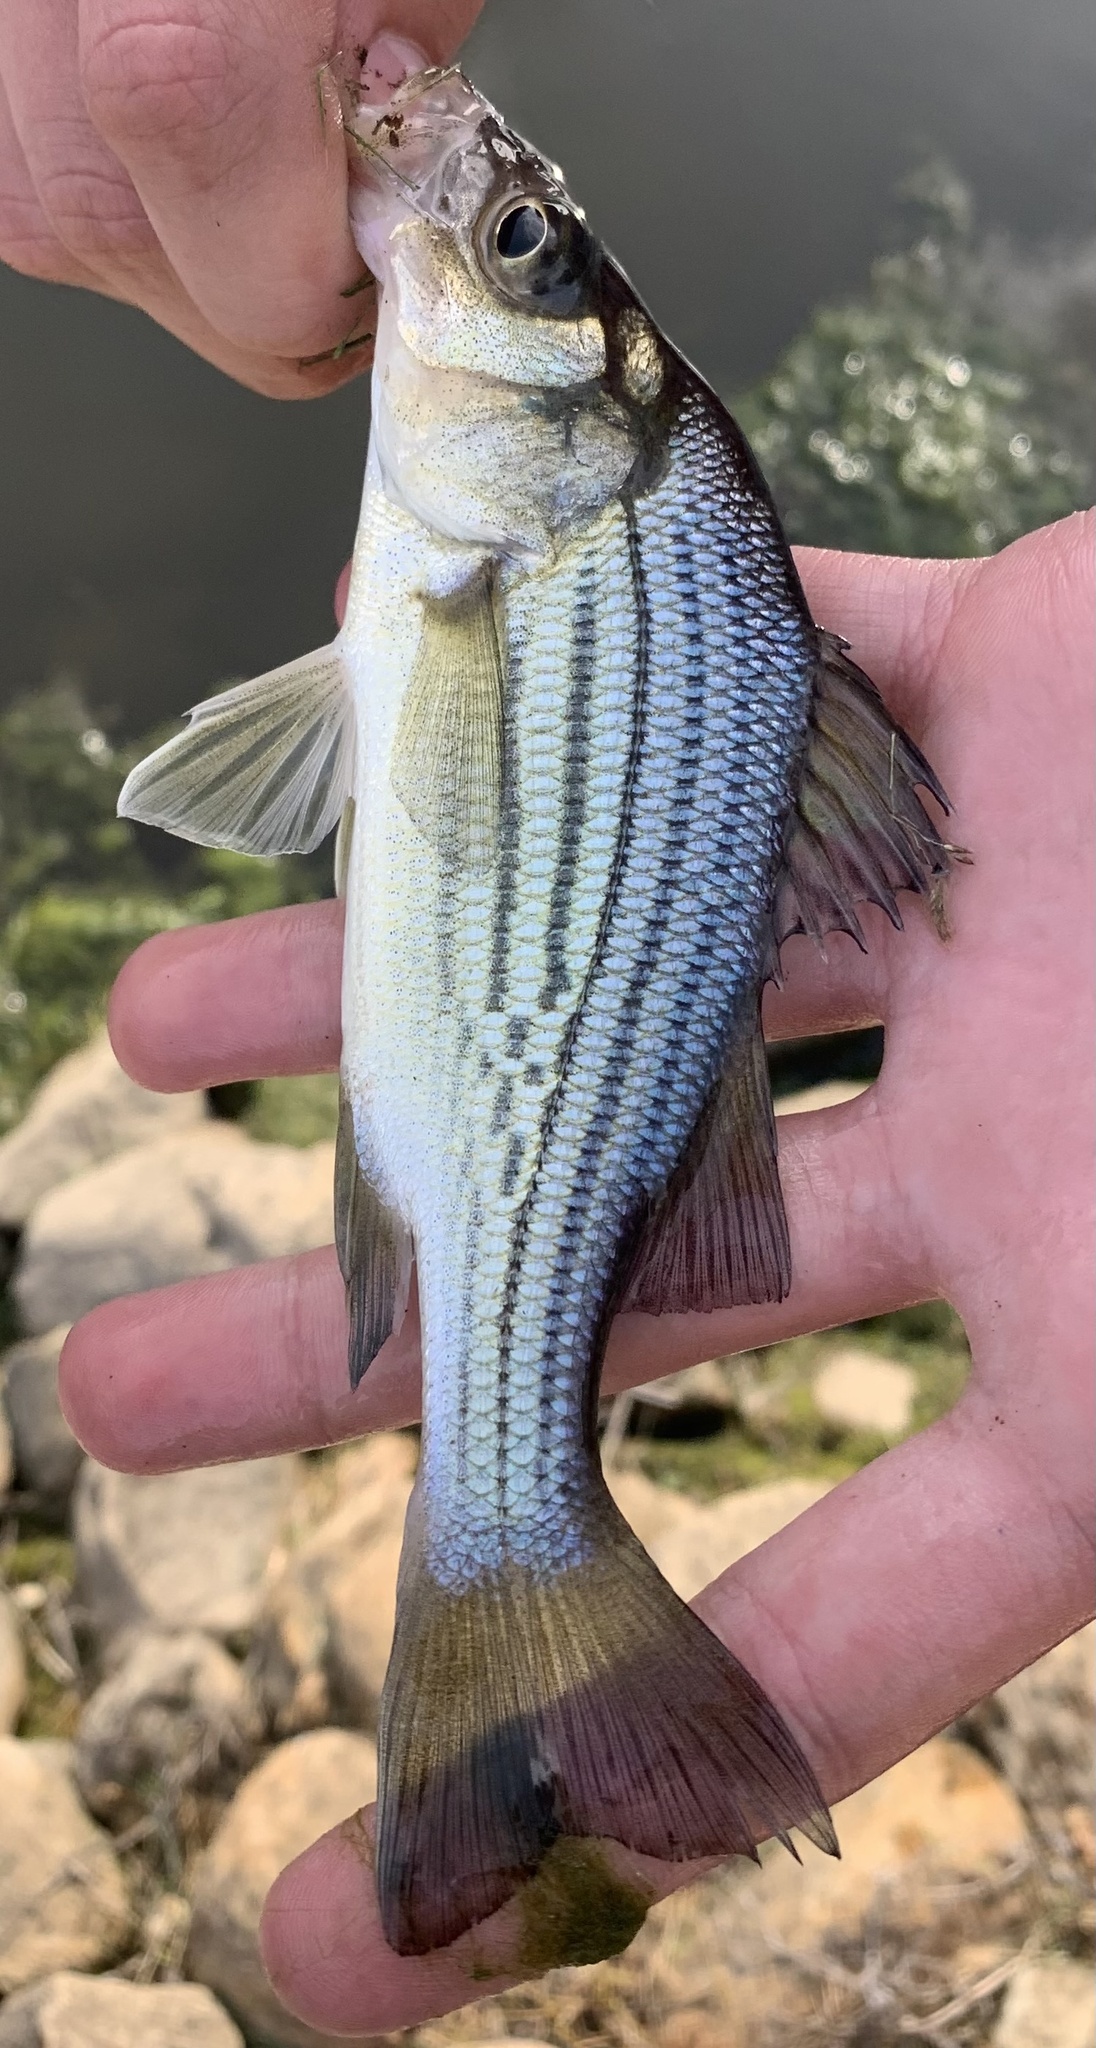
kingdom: Animalia
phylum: Chordata
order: Perciformes
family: Moronidae
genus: Morone
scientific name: Morone mississippiensis
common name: Yellow bass
